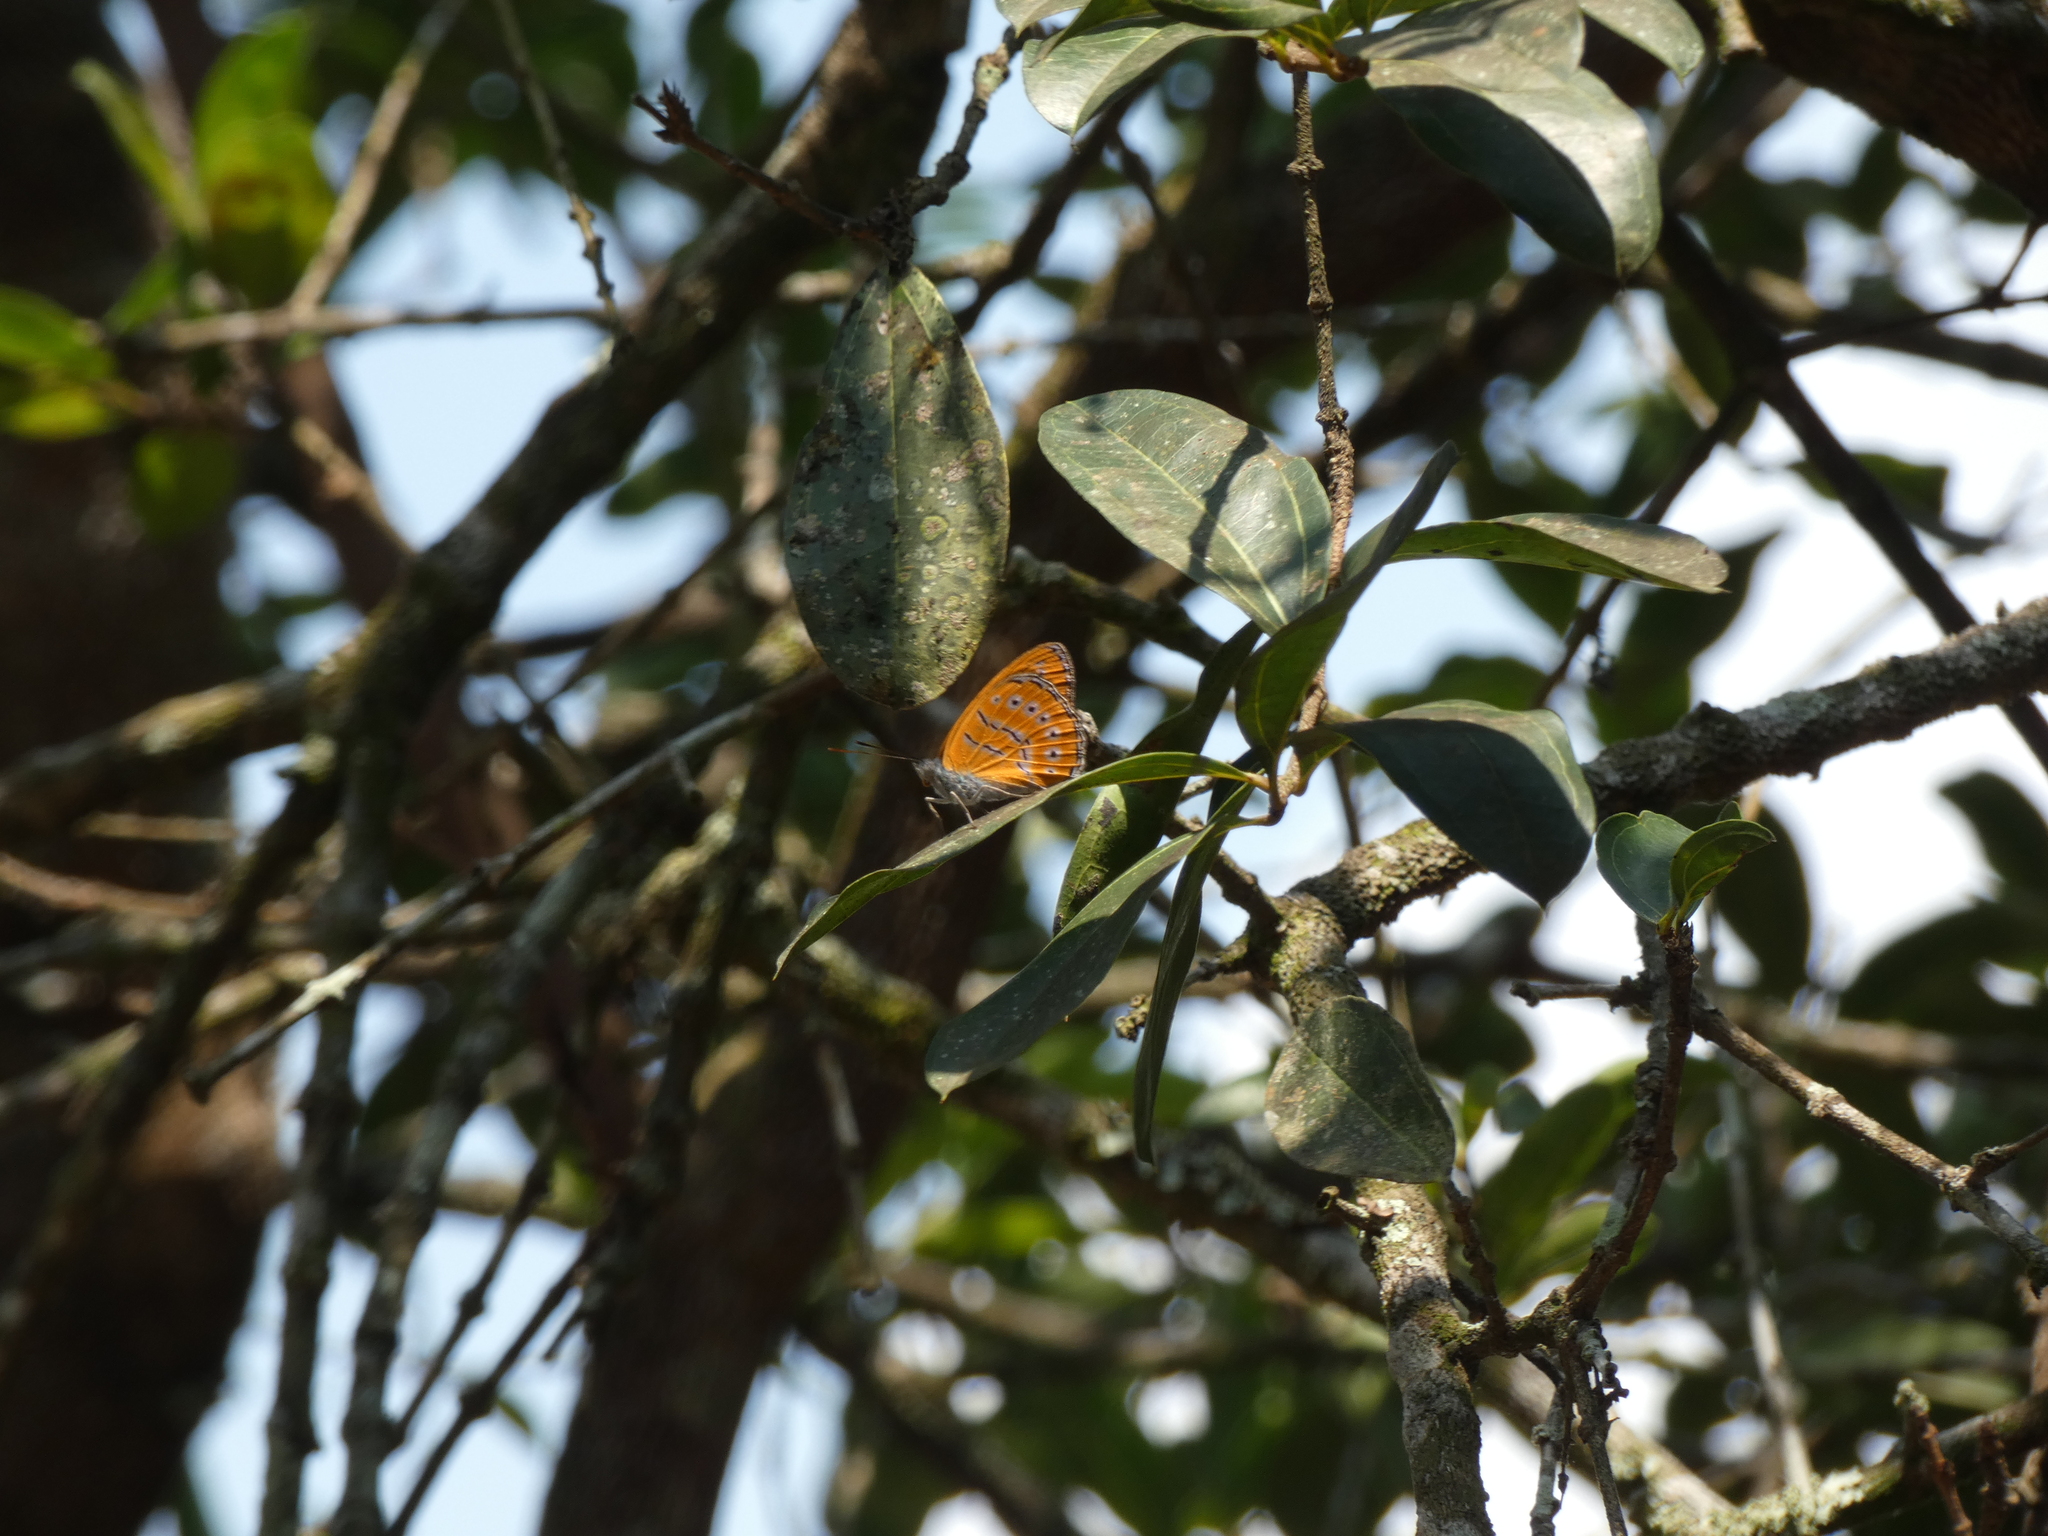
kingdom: Animalia
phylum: Arthropoda
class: Insecta
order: Lepidoptera
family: Nymphalidae
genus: Sevenia
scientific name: Sevenia
